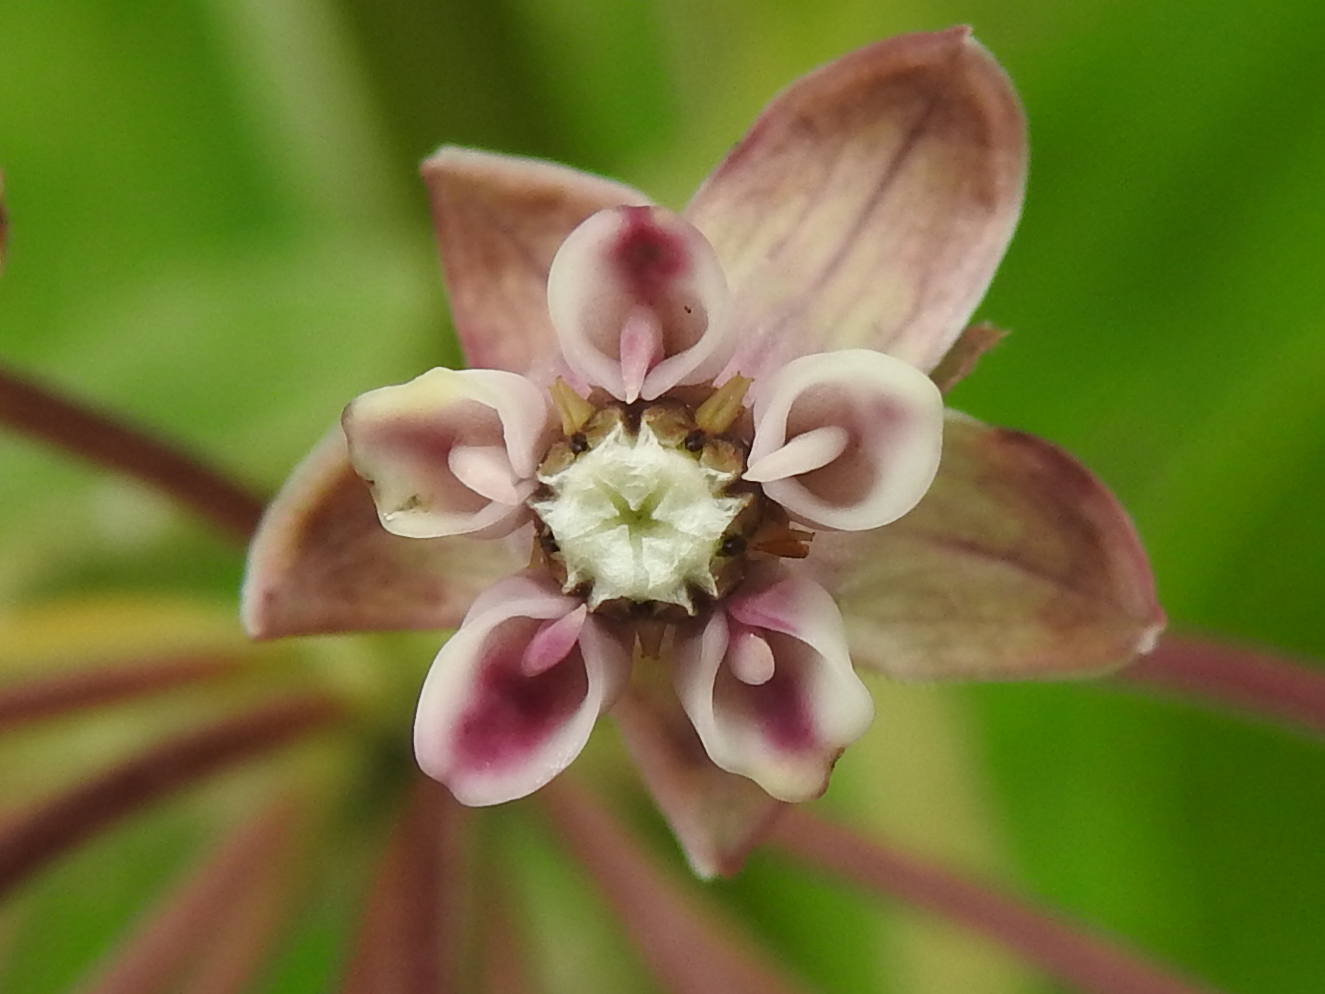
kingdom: Plantae
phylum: Tracheophyta
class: Magnoliopsida
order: Gentianales
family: Apocynaceae
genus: Asclepias
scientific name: Asclepias syriaca
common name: Common milkweed
